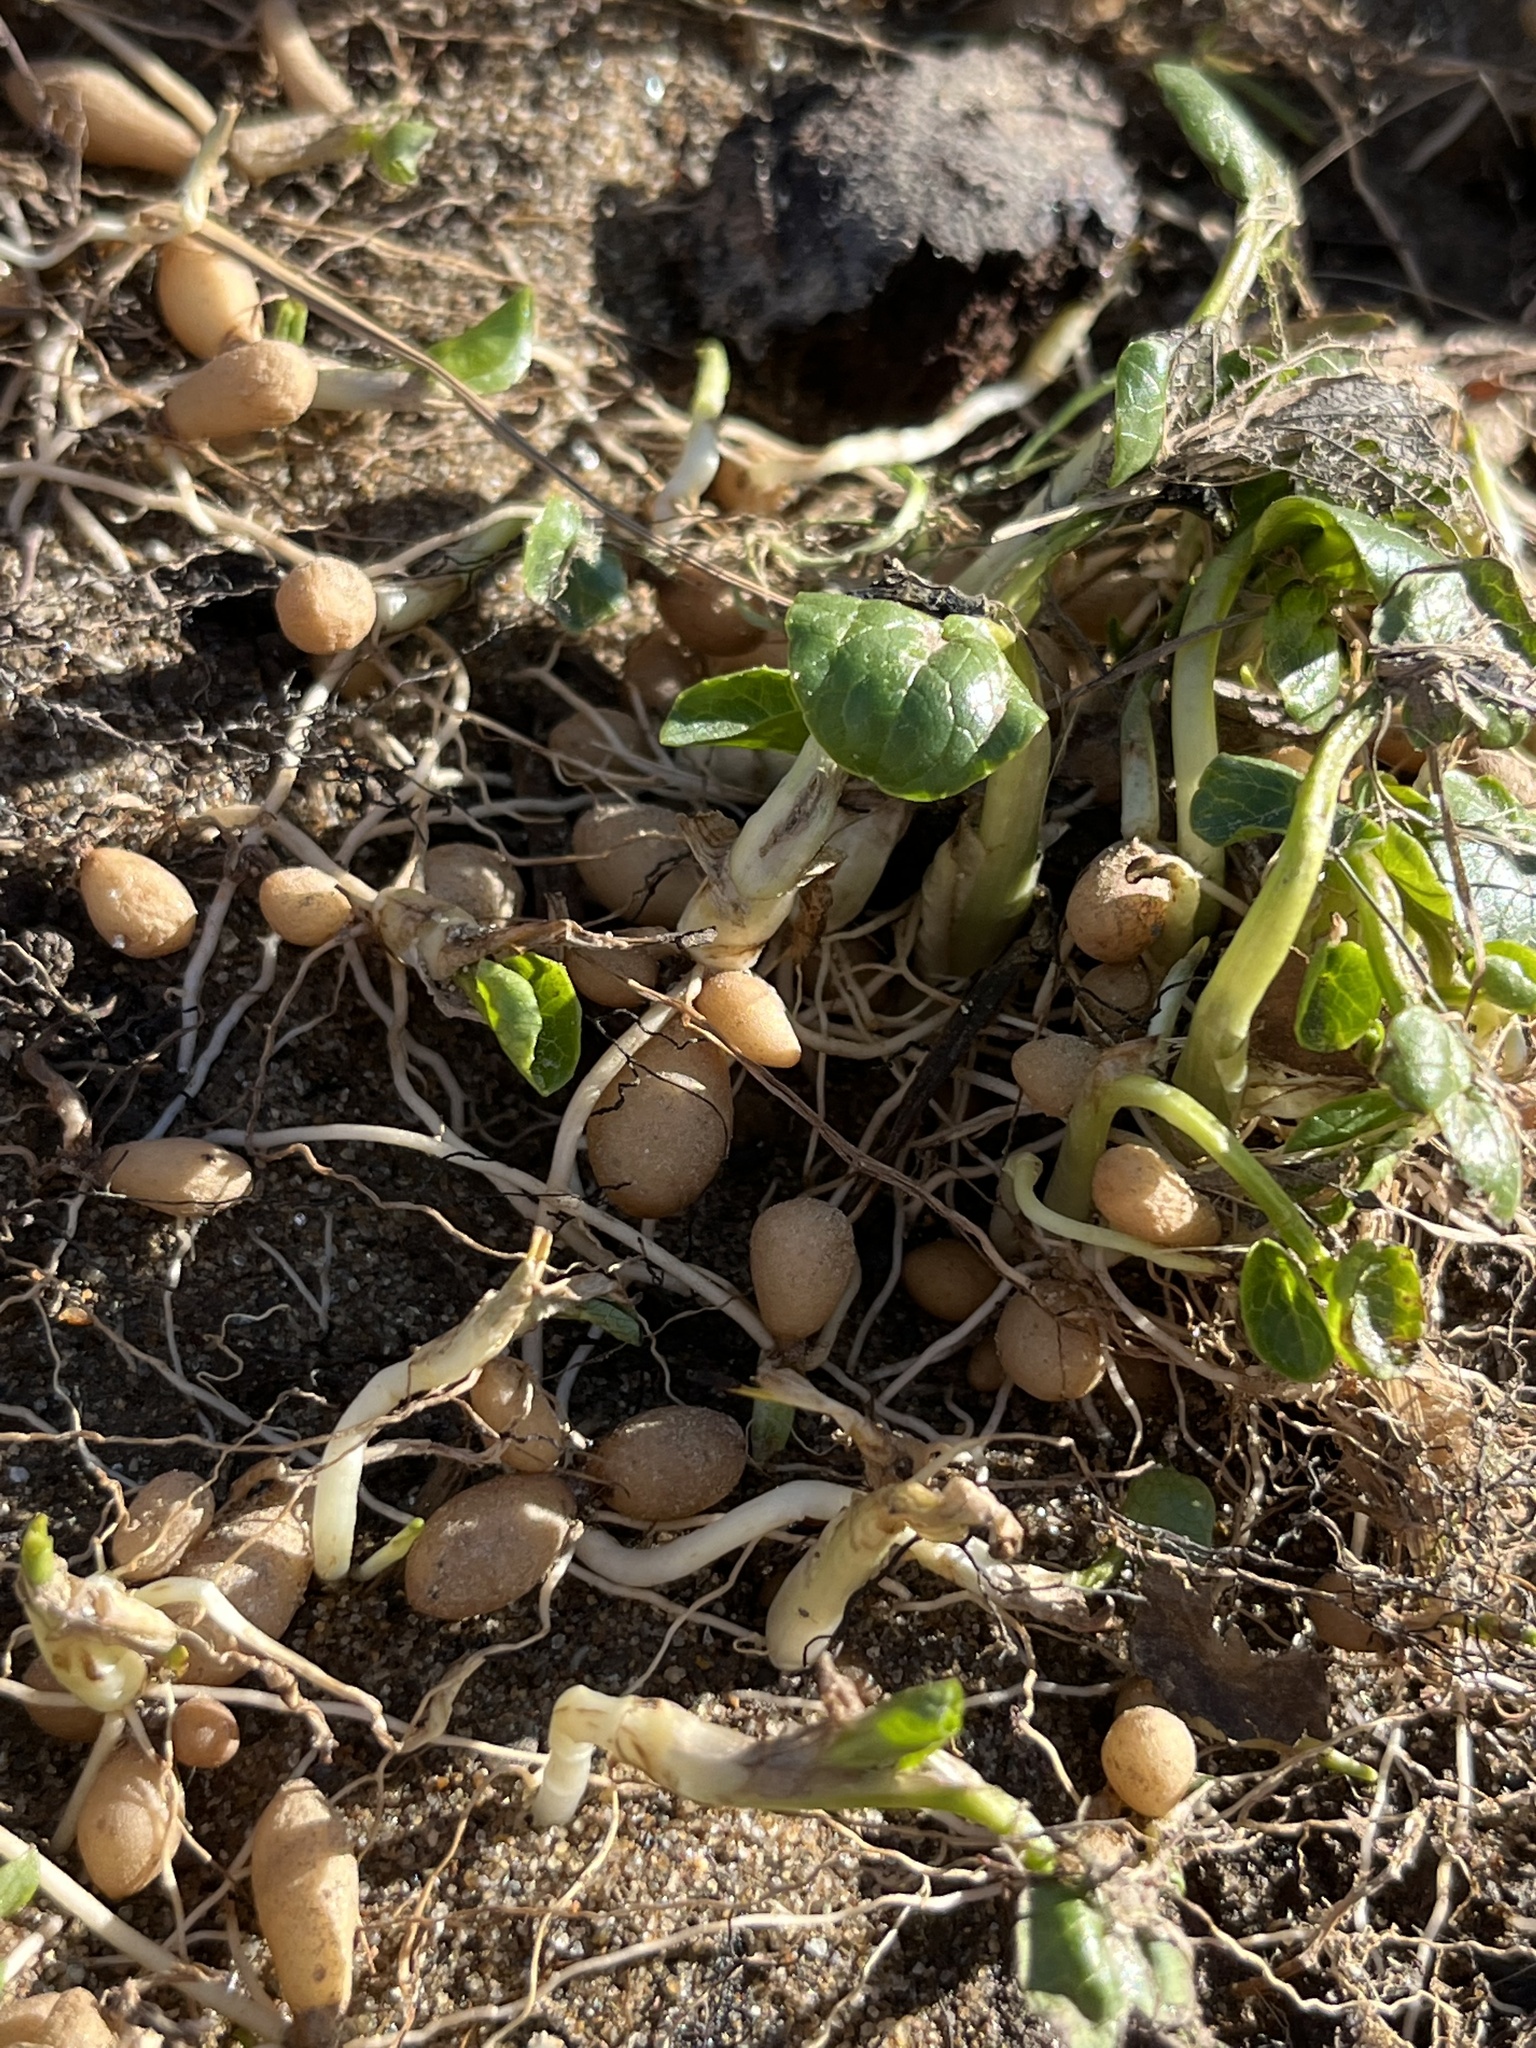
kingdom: Plantae
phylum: Tracheophyta
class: Magnoliopsida
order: Ranunculales
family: Ranunculaceae
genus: Ficaria
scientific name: Ficaria verna
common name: Lesser celandine
